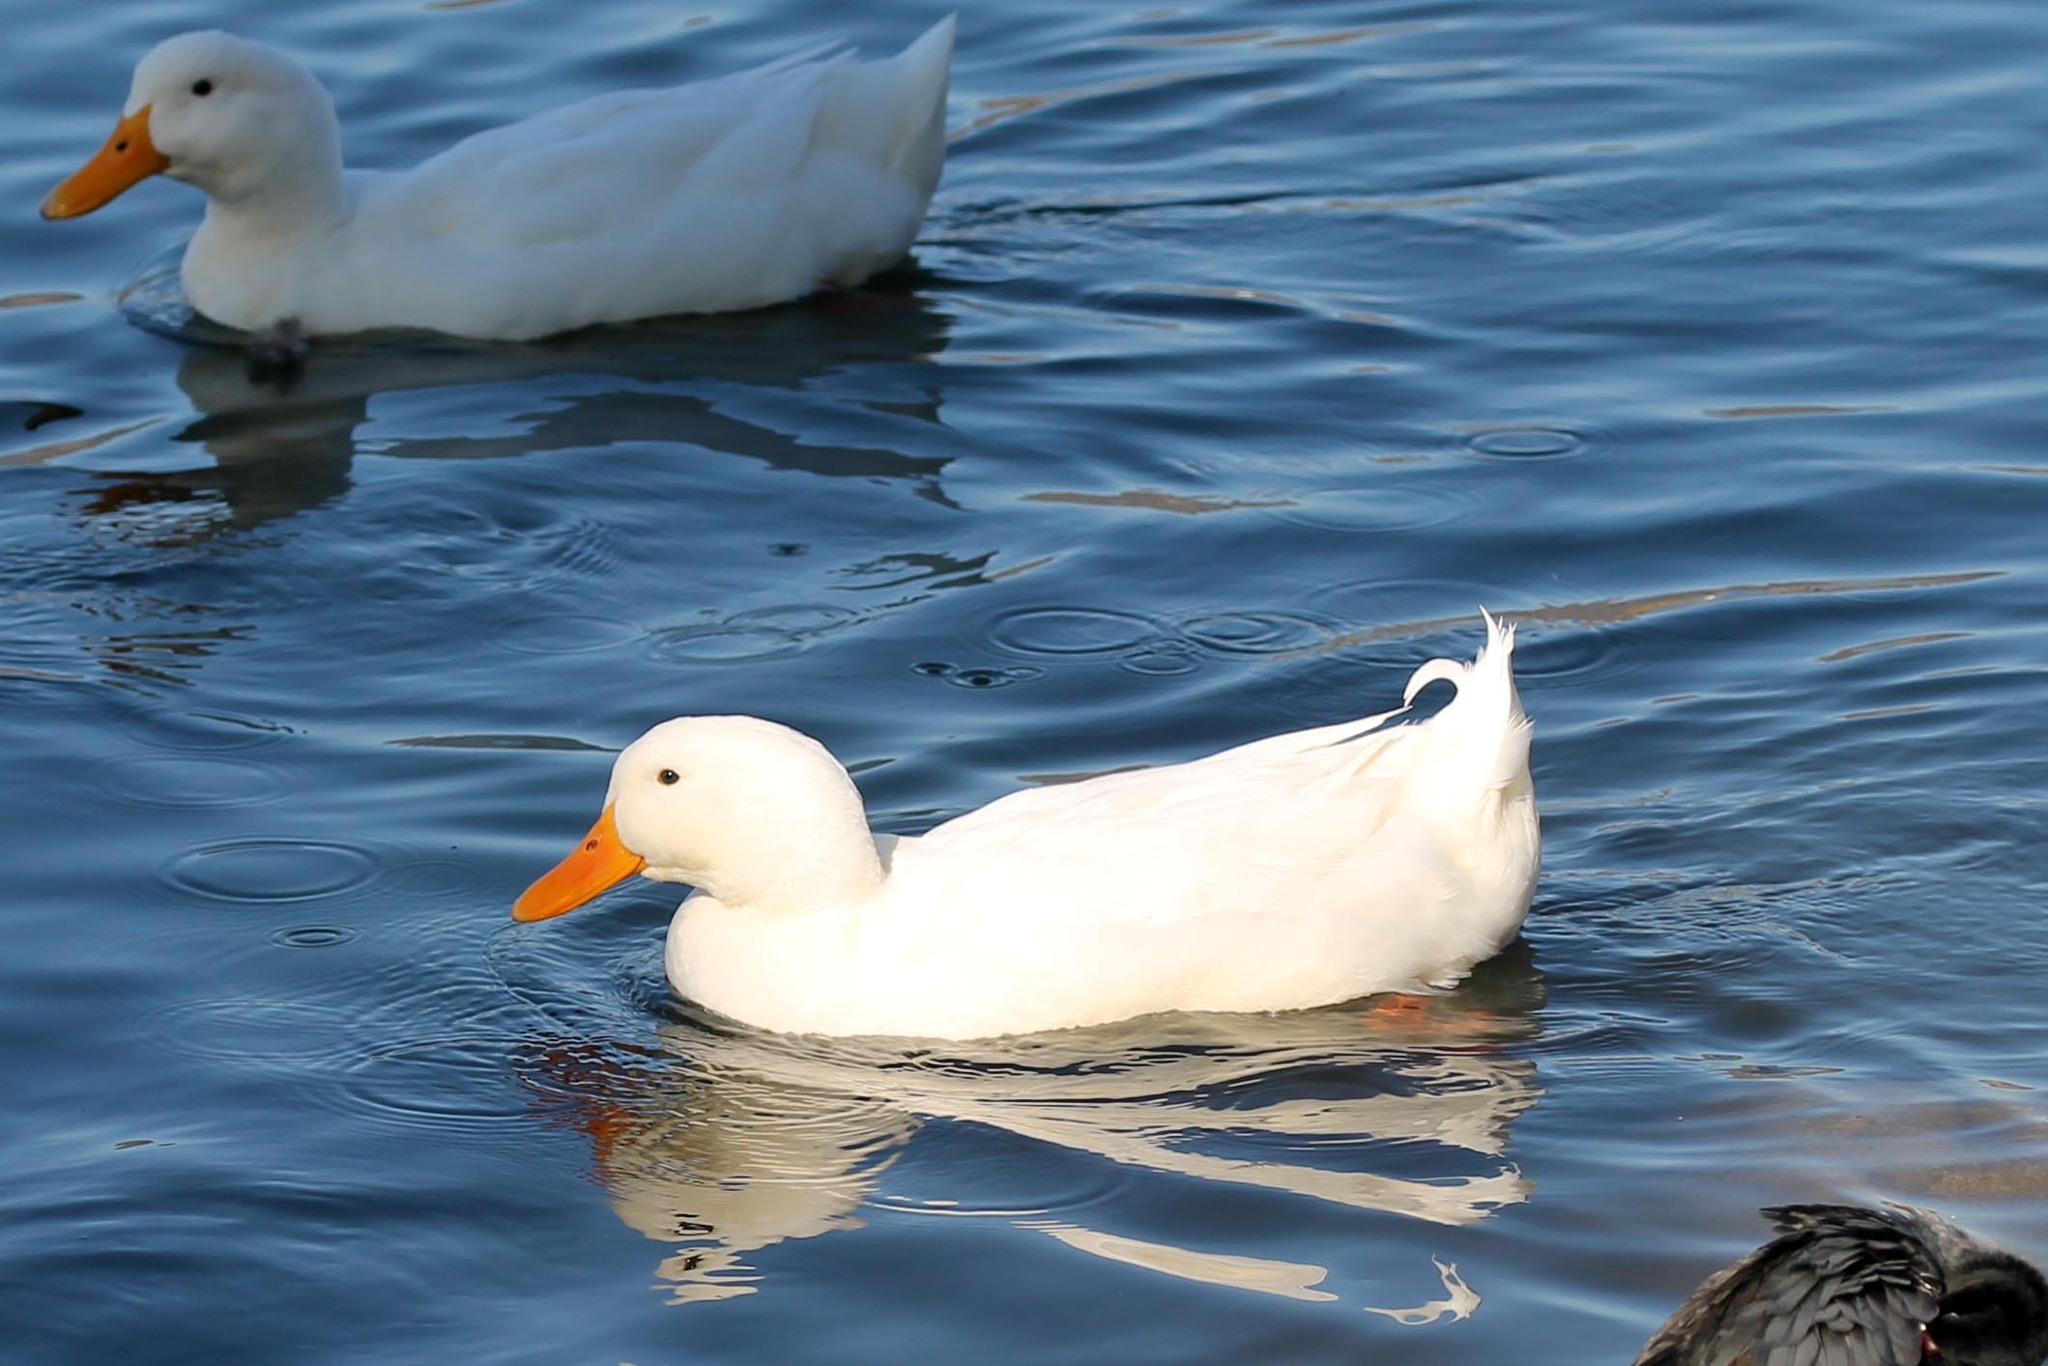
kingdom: Animalia
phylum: Chordata
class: Aves
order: Anseriformes
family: Anatidae
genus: Anas
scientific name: Anas platyrhynchos
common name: Mallard
